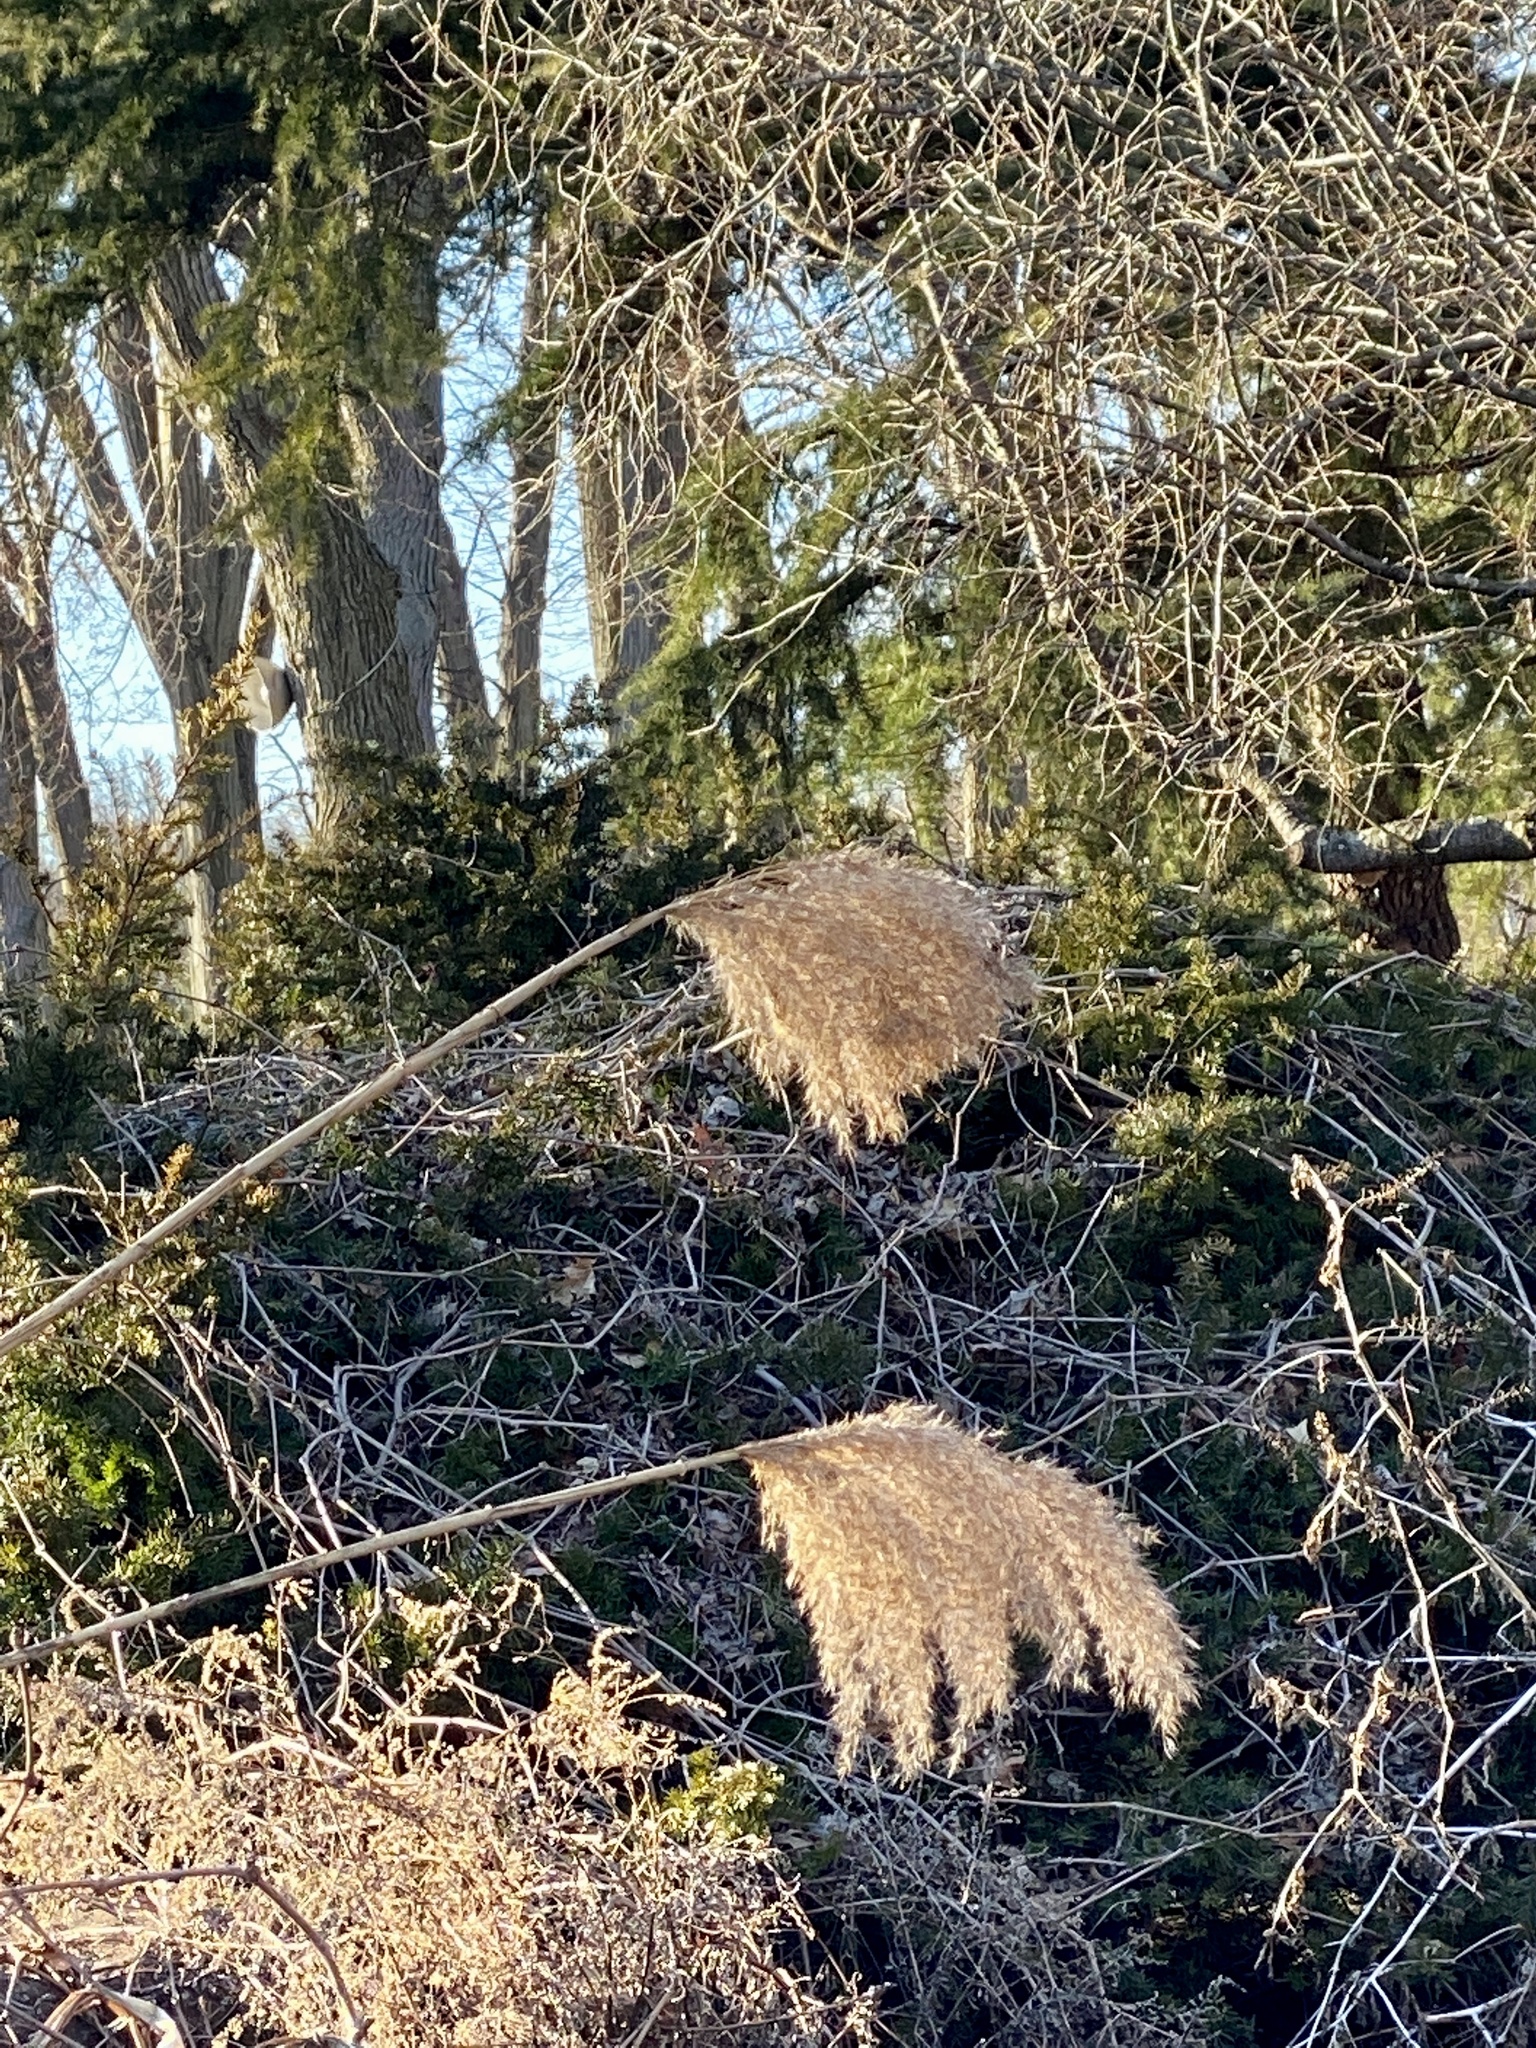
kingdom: Plantae
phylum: Tracheophyta
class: Liliopsida
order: Poales
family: Poaceae
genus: Phragmites
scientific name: Phragmites australis
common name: Common reed
